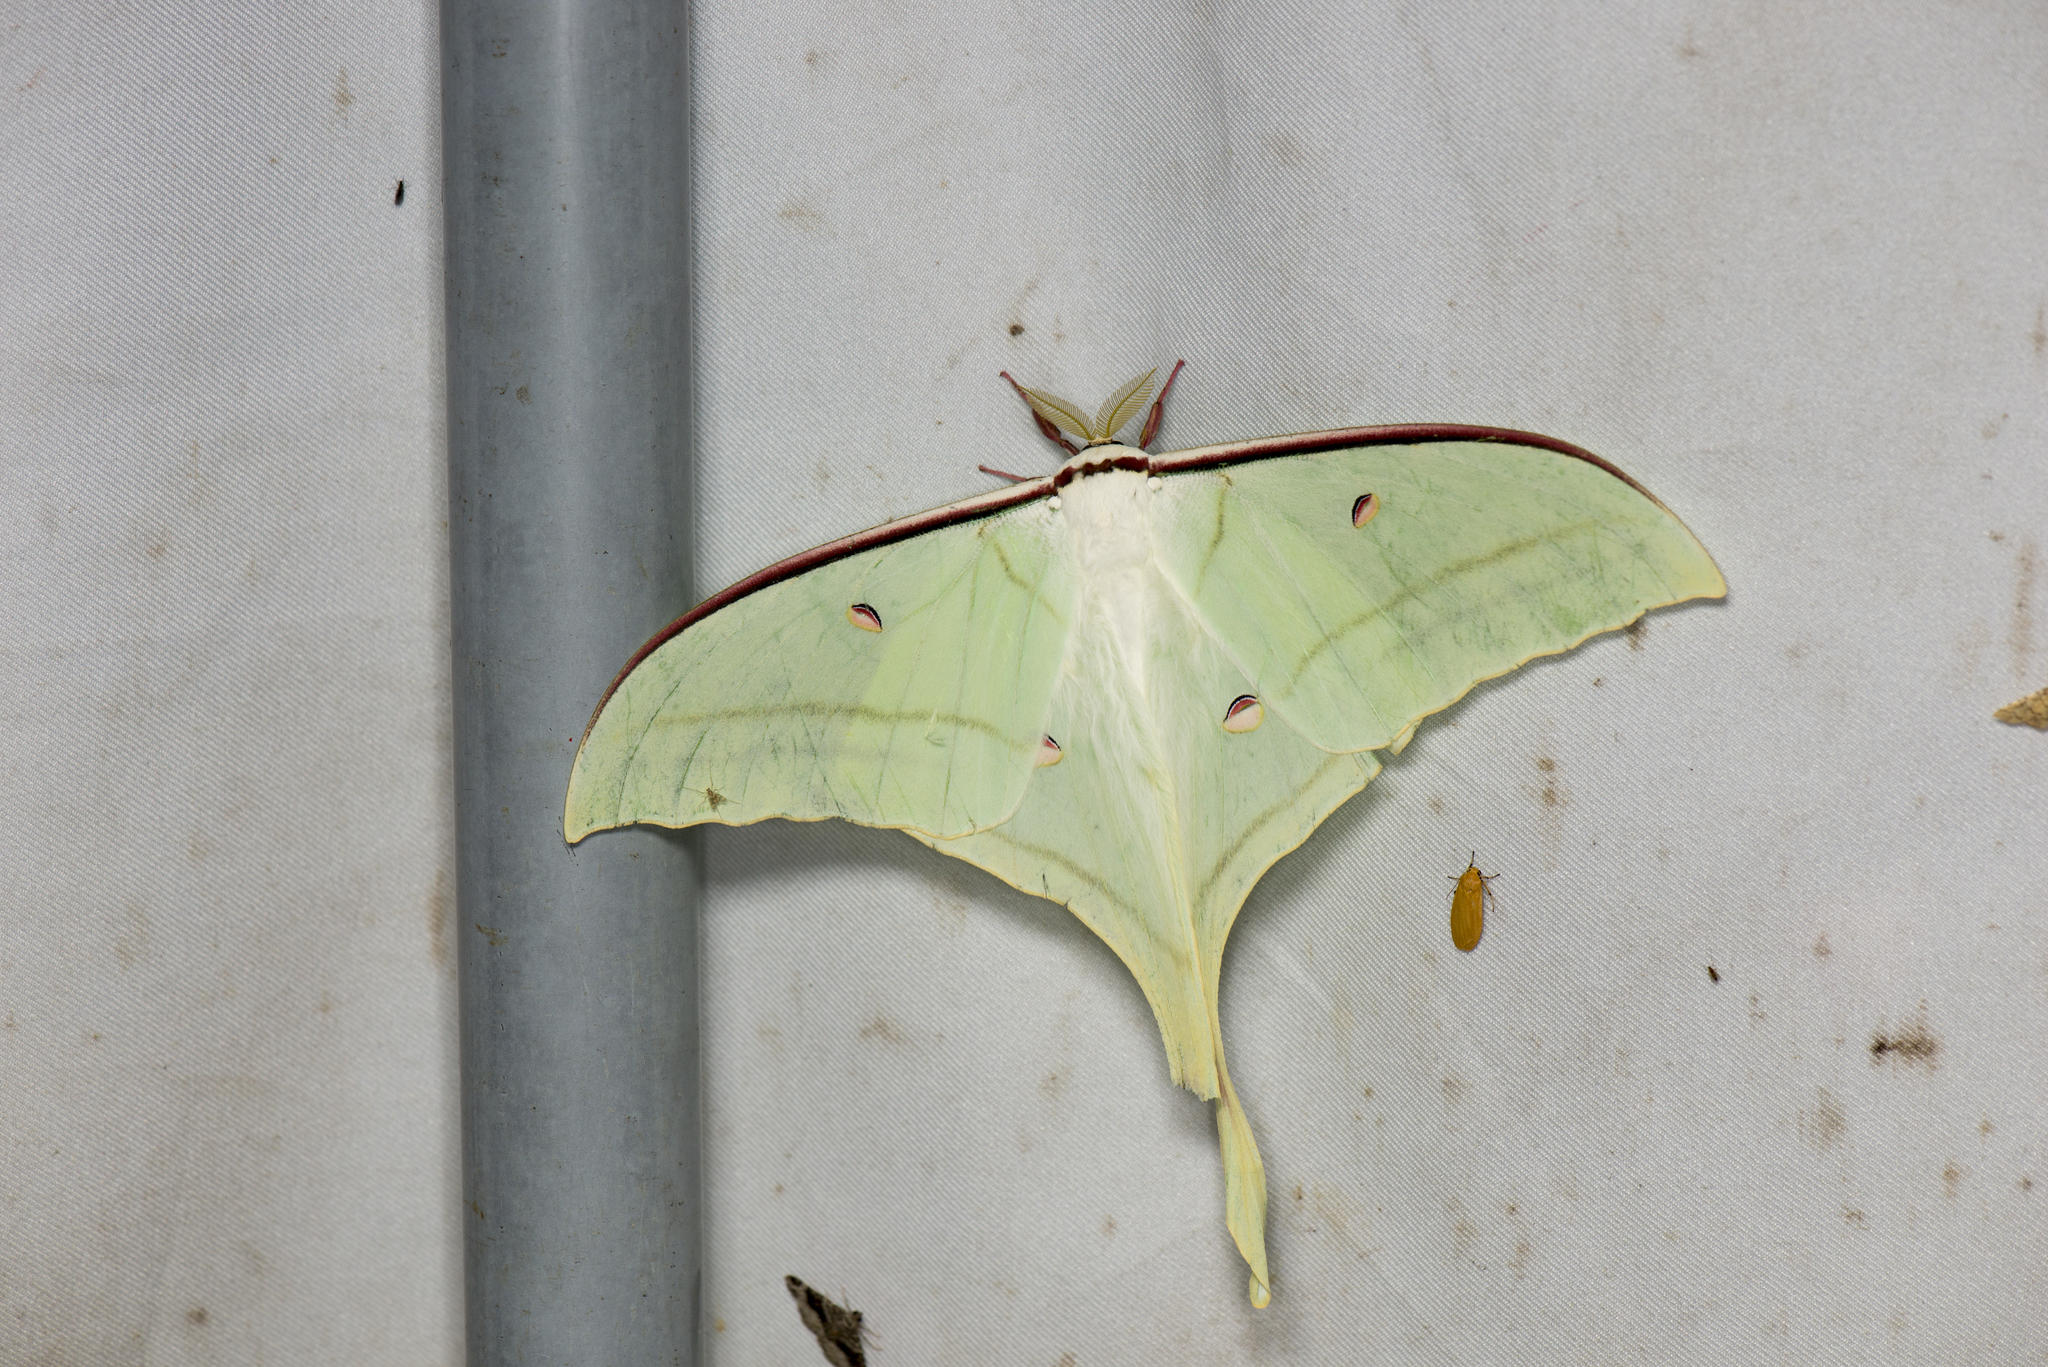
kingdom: Animalia
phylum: Arthropoda
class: Insecta
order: Lepidoptera
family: Saturniidae
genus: Actias
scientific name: Actias ningpoana
